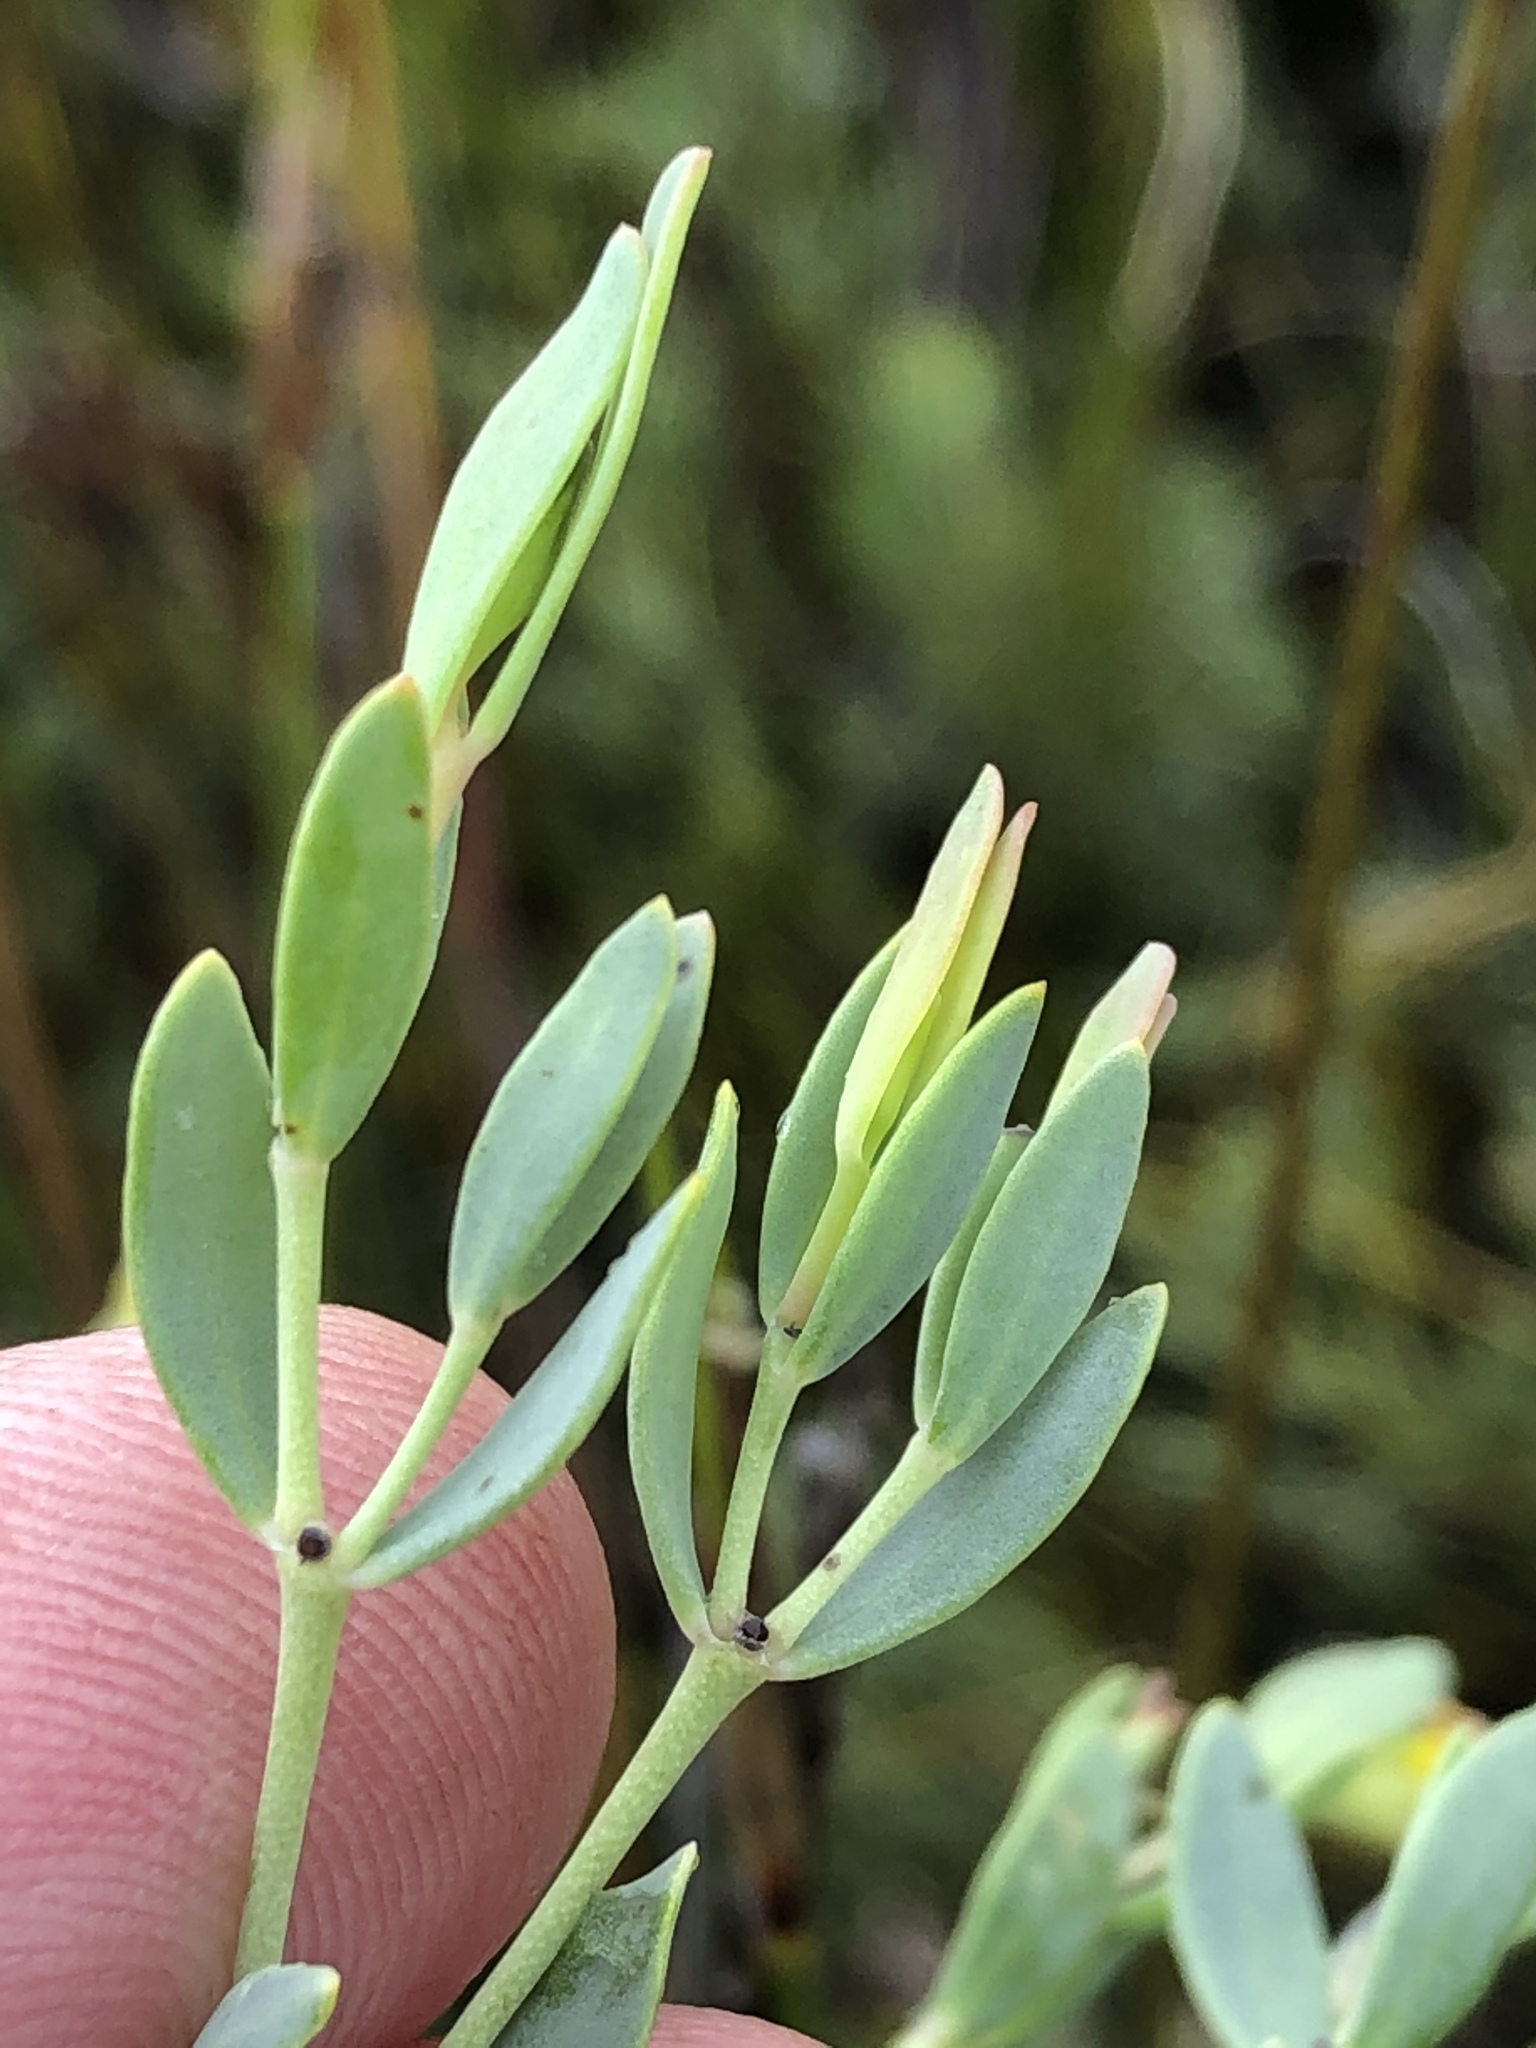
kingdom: Plantae
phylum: Tracheophyta
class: Magnoliopsida
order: Fabales
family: Fabaceae
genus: Rafnia
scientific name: Rafnia capensis
